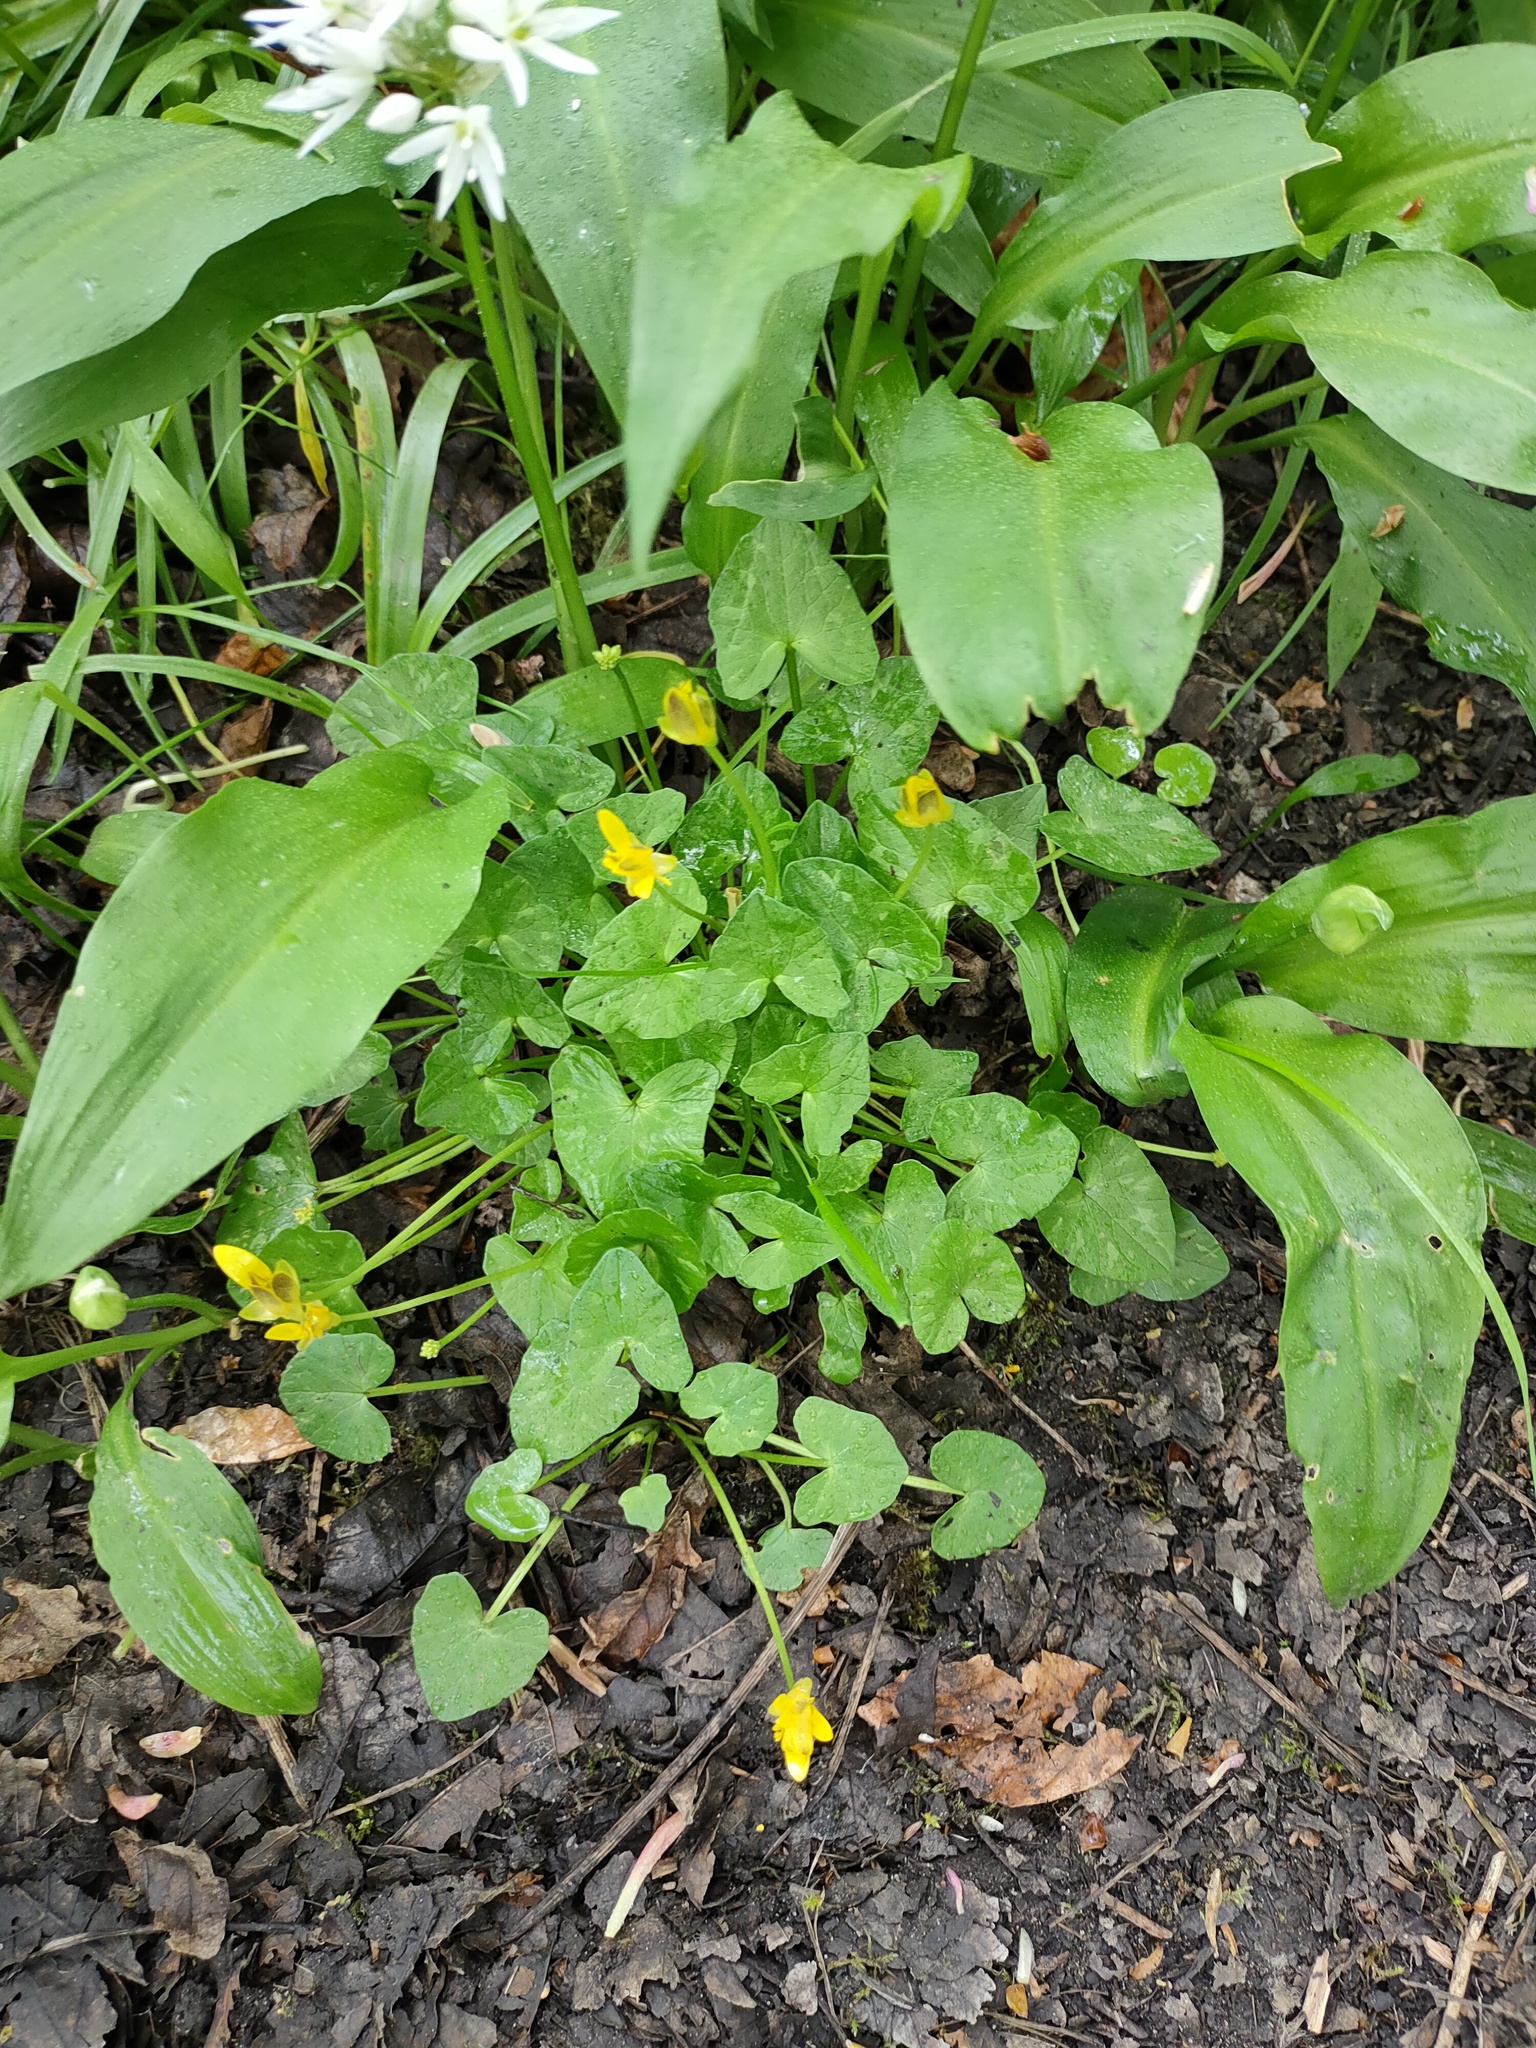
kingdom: Plantae
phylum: Tracheophyta
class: Magnoliopsida
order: Ranunculales
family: Ranunculaceae
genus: Ficaria
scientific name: Ficaria verna
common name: Lesser celandine
